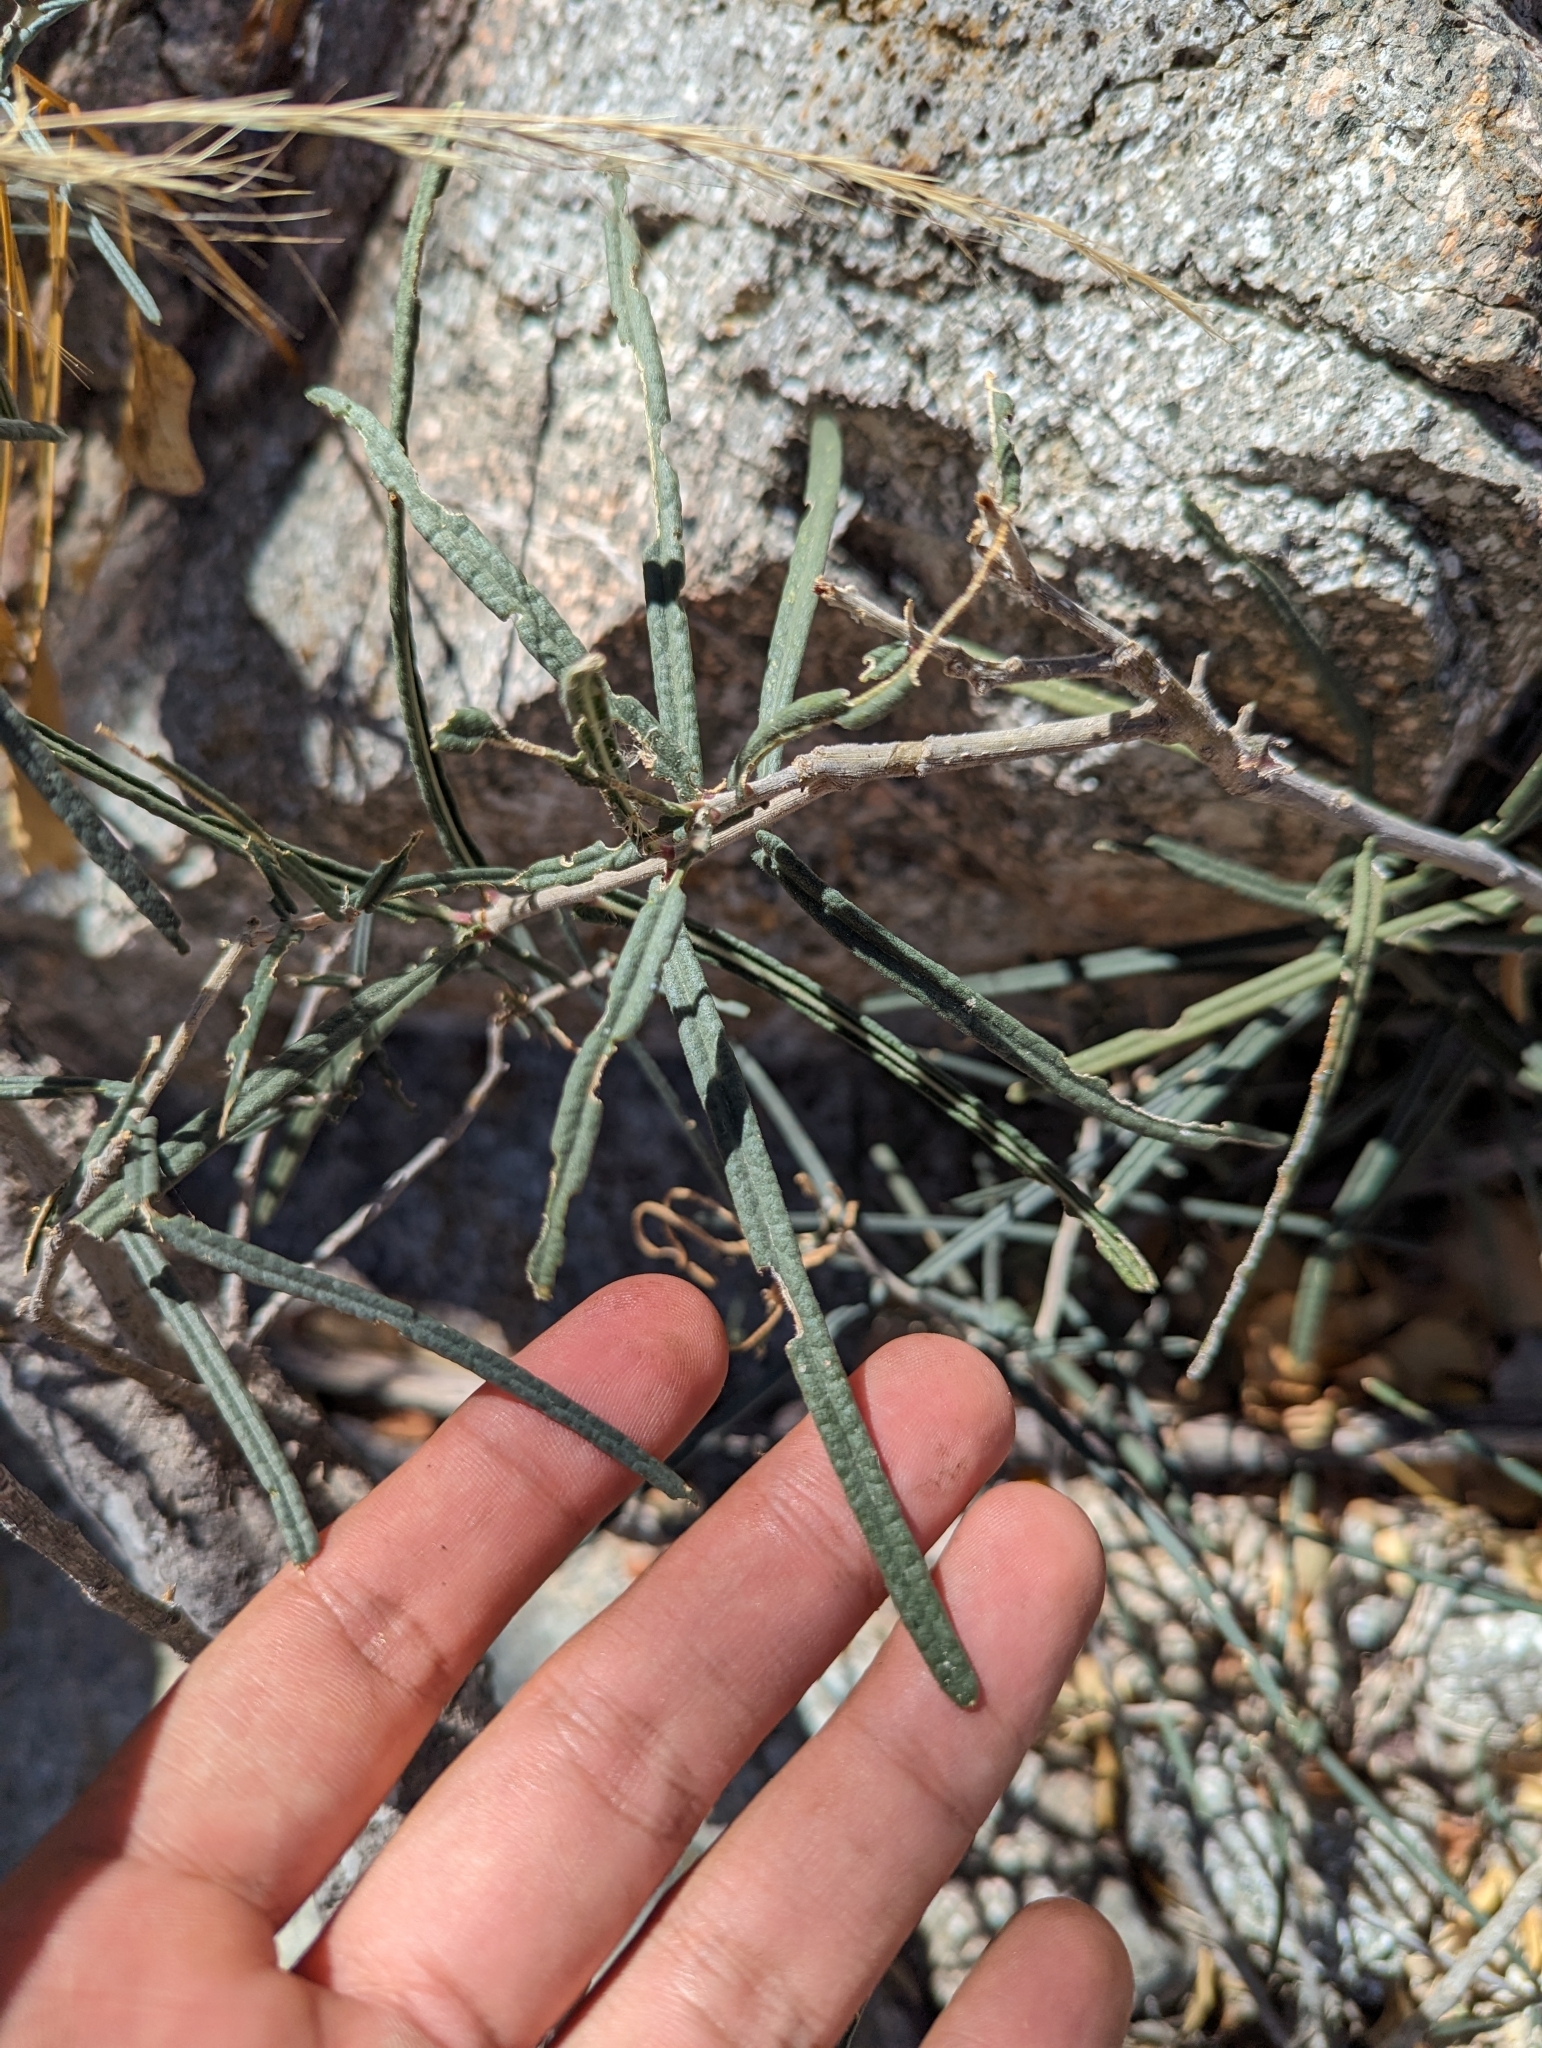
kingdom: Plantae
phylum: Tracheophyta
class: Magnoliopsida
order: Brassicales
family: Stixaceae
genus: Forchhammeria
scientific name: Forchhammeria watsonii
